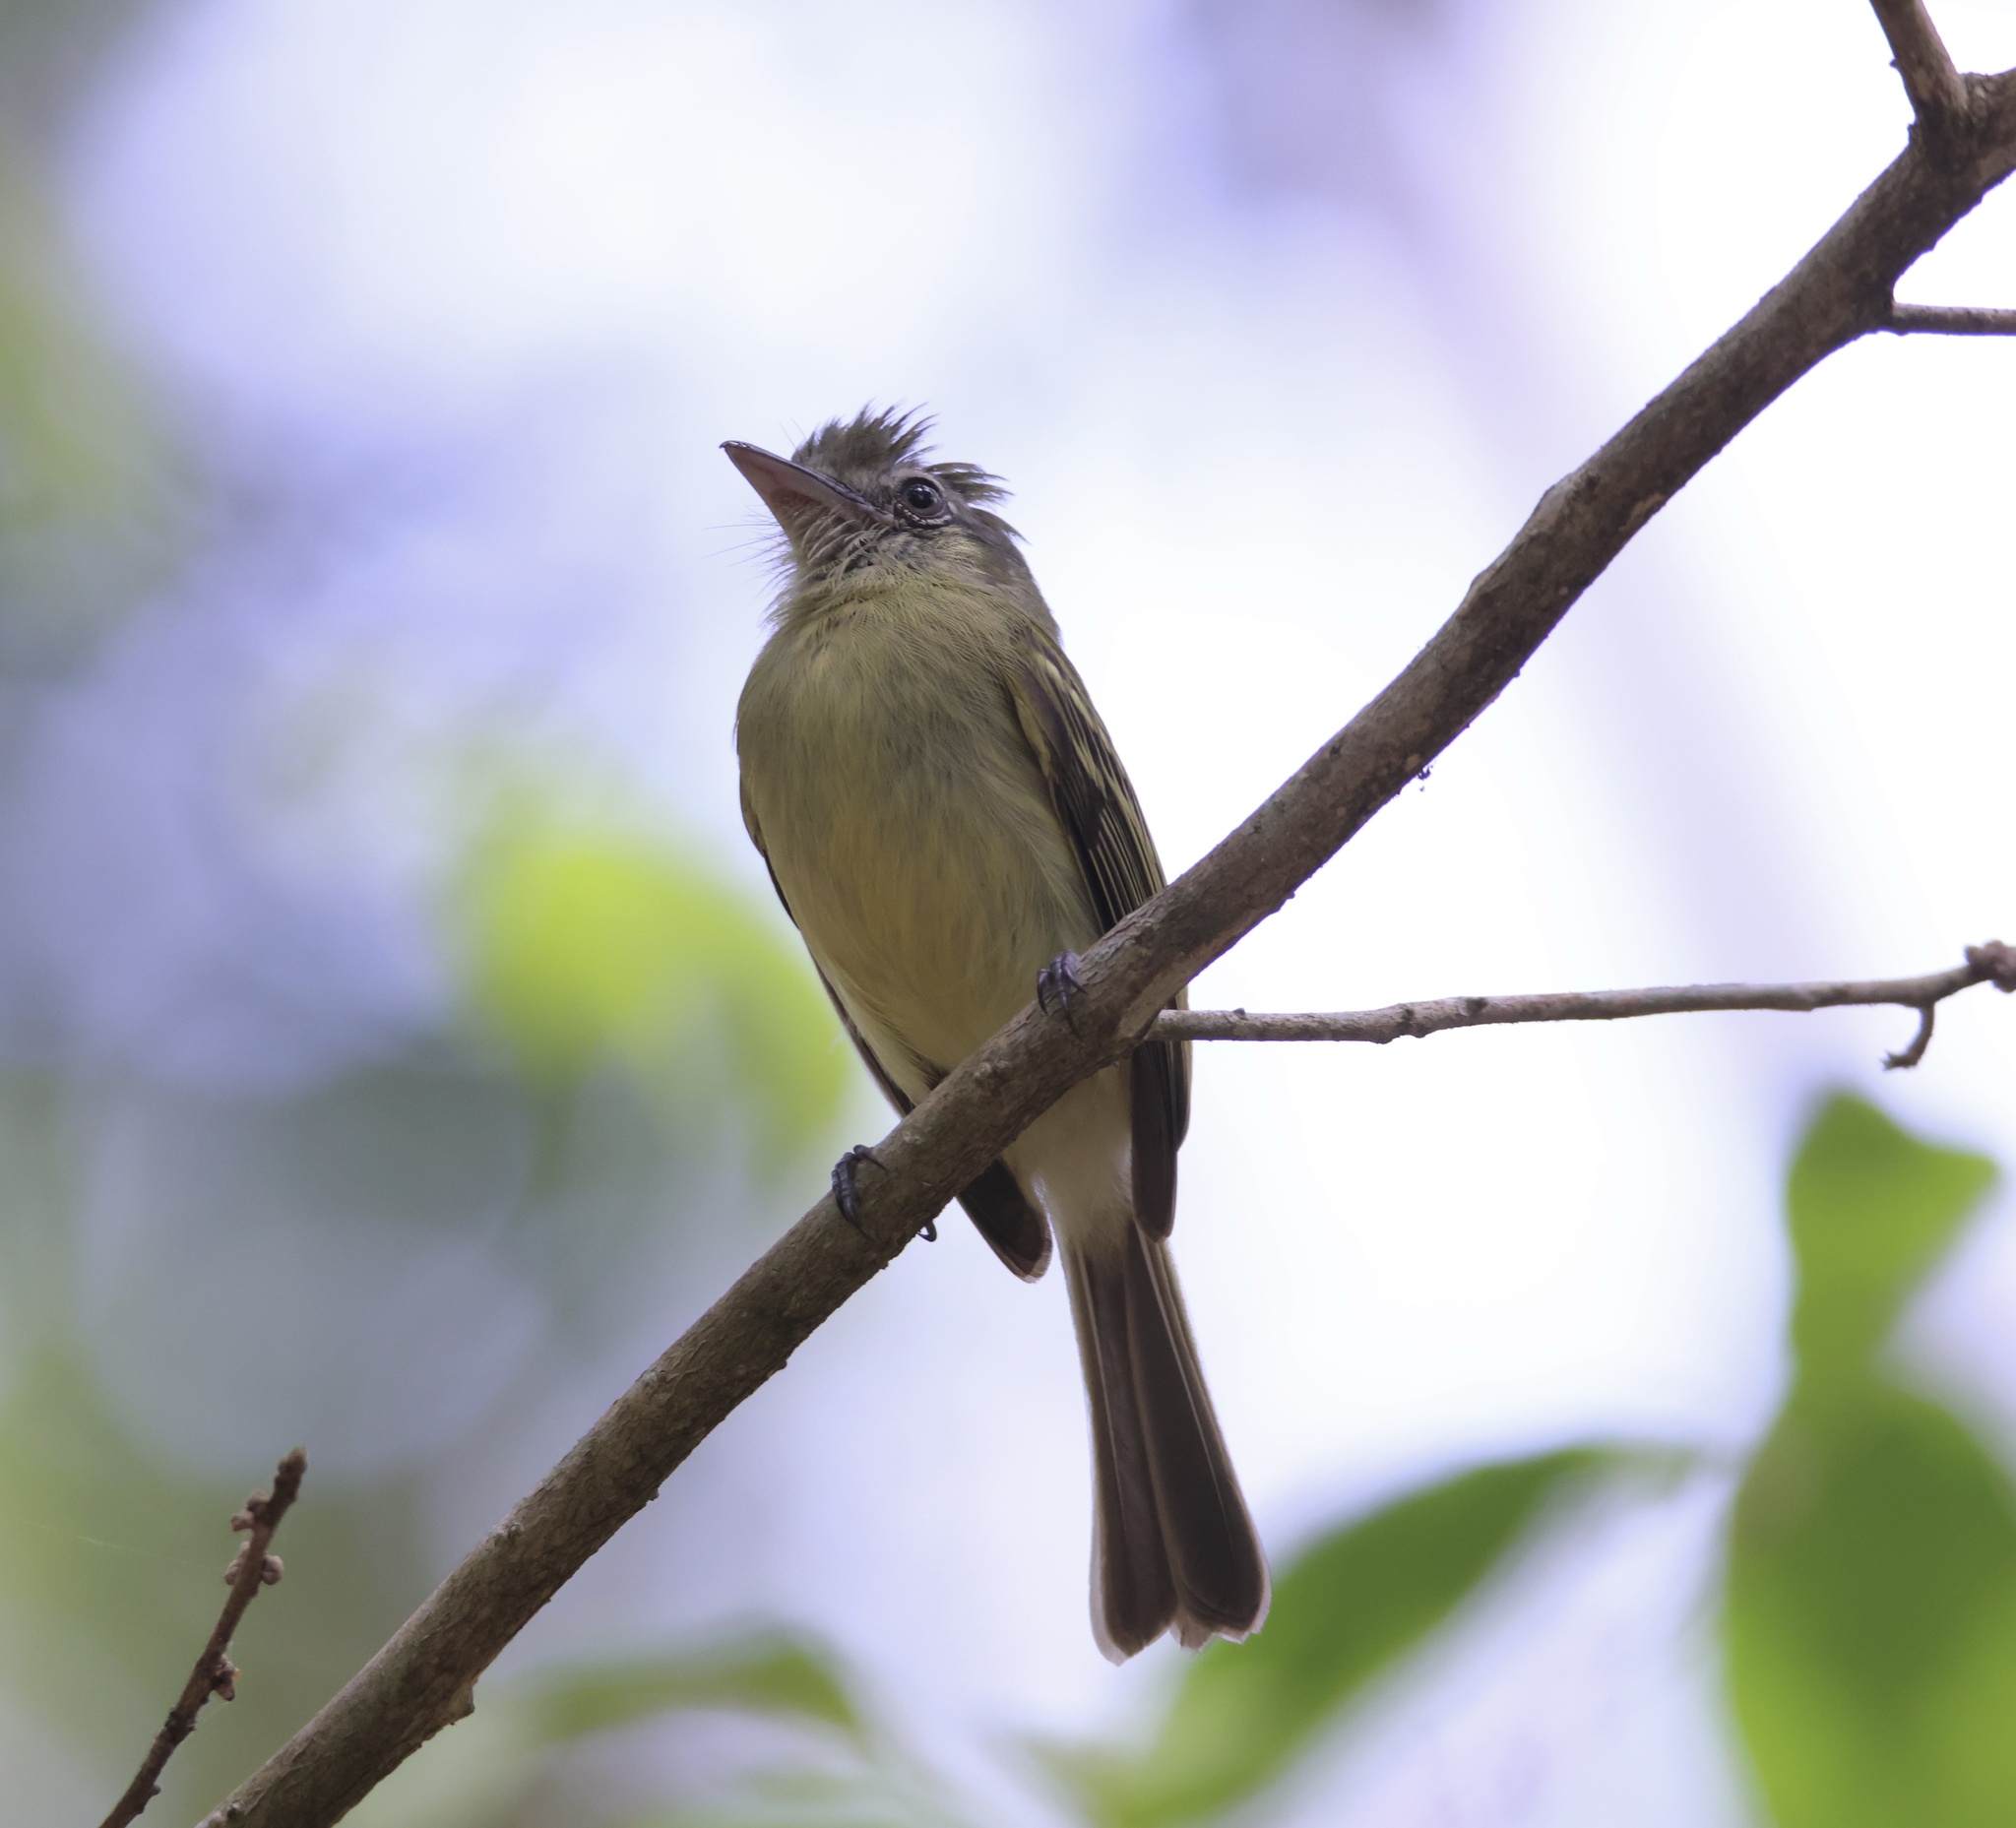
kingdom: Animalia
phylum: Chordata
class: Aves
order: Passeriformes
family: Tyrannidae
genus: Tolmomyias
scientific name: Tolmomyias sulphurescens
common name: Yellow-olive flycatcher
